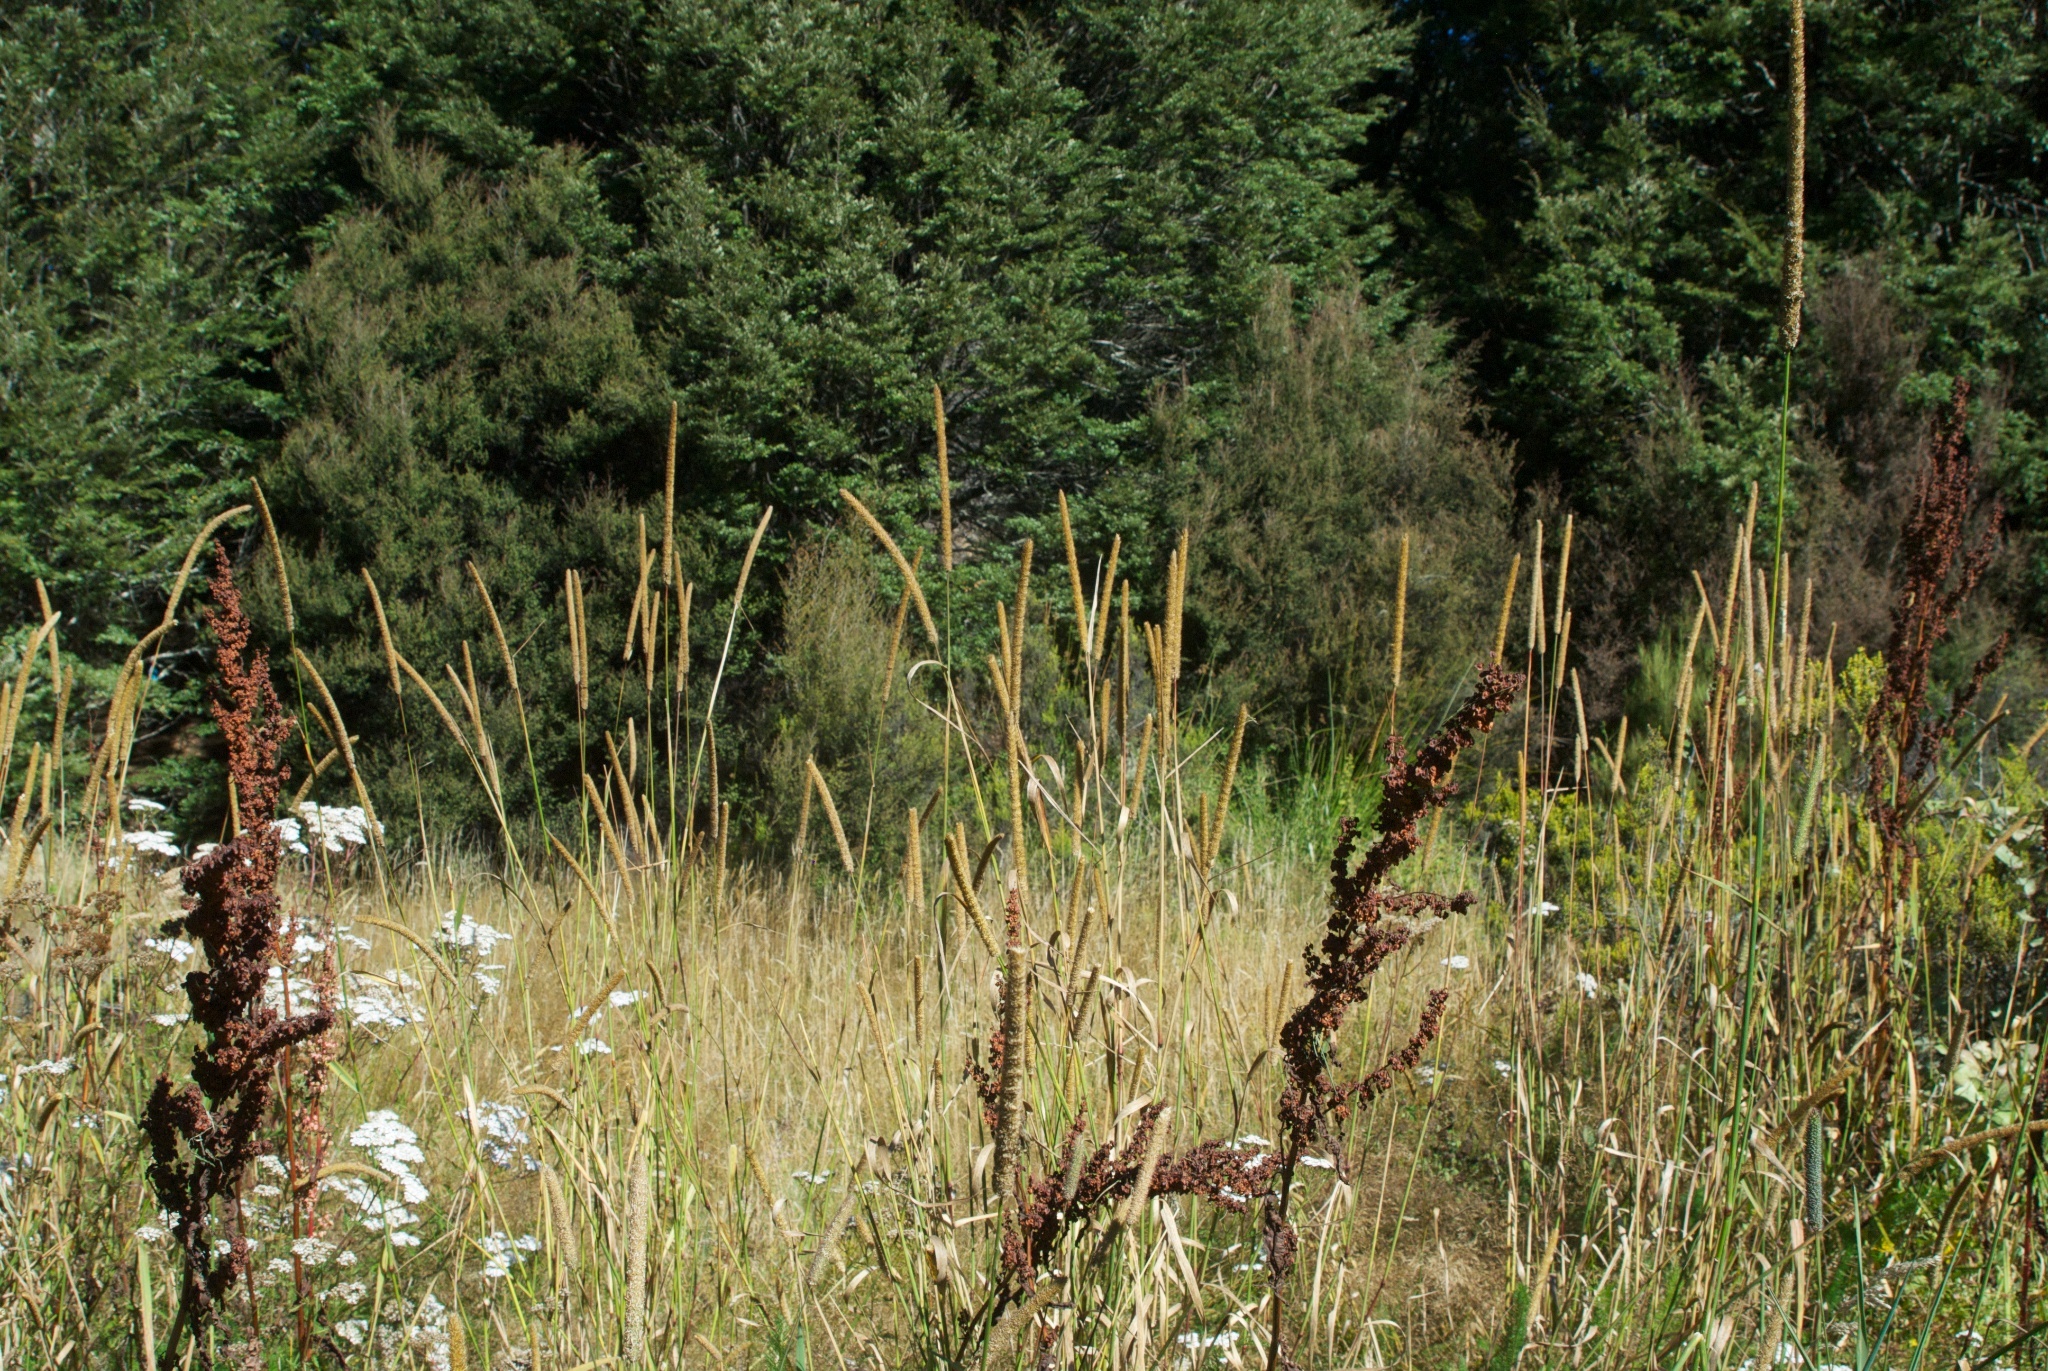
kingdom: Plantae
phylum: Tracheophyta
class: Liliopsida
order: Poales
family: Poaceae
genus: Phleum
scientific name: Phleum pratense
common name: Timothy grass
